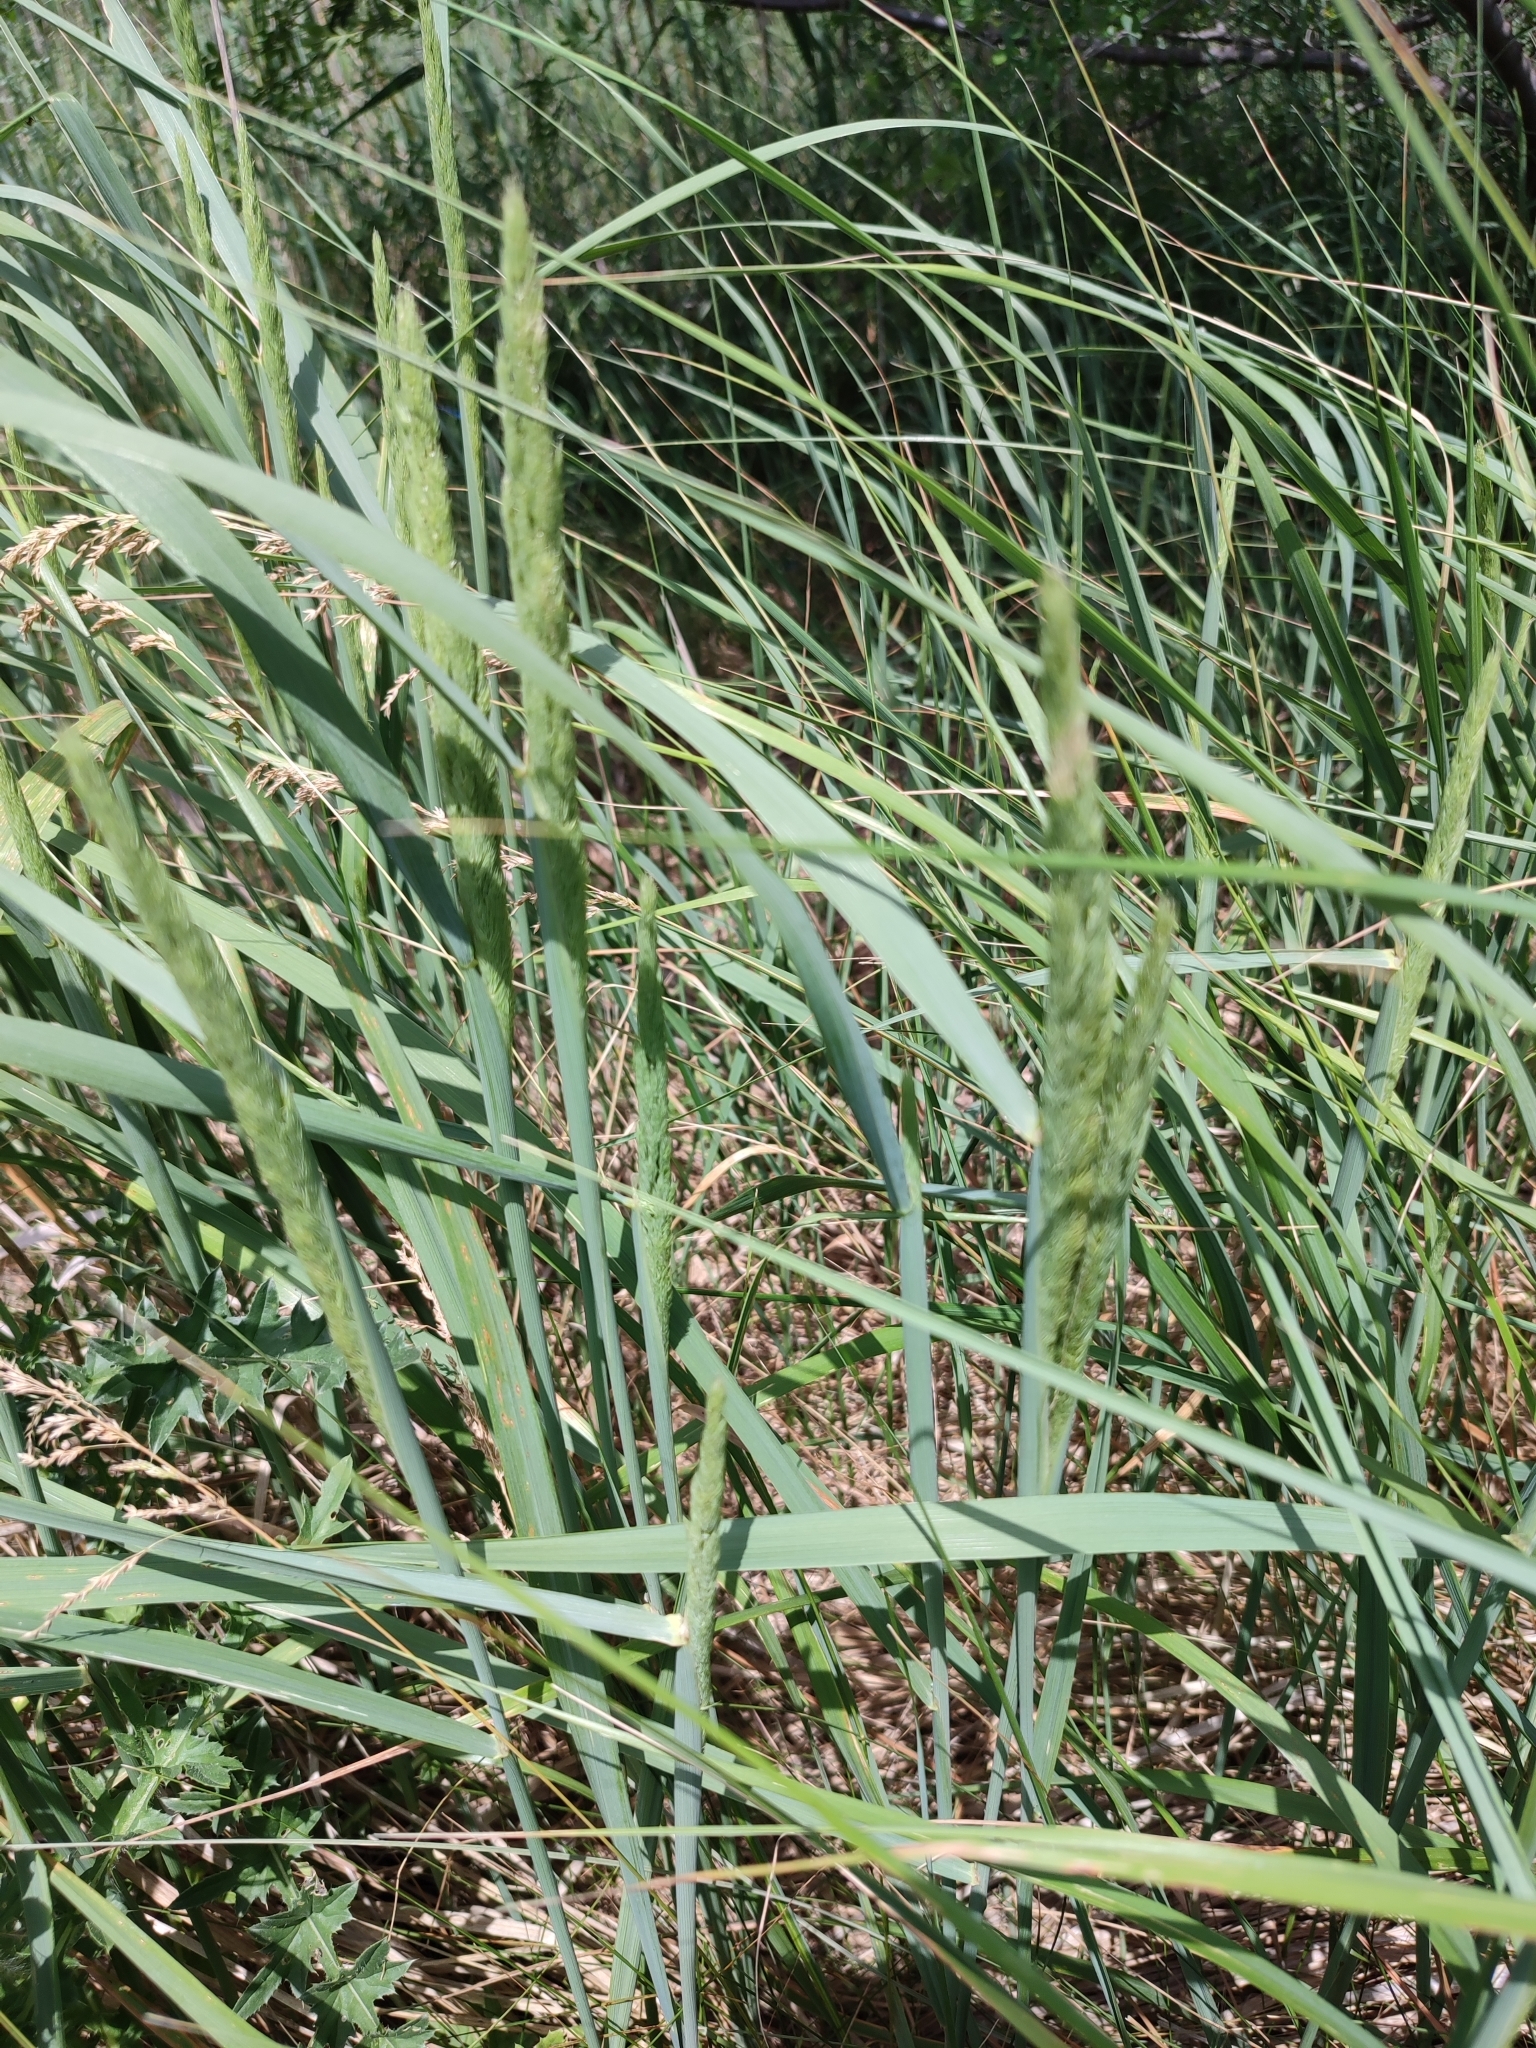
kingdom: Plantae
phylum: Tracheophyta
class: Liliopsida
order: Poales
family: Poaceae
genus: Calamagrostis
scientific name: Calamagrostis epigejos
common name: Wood small-reed
